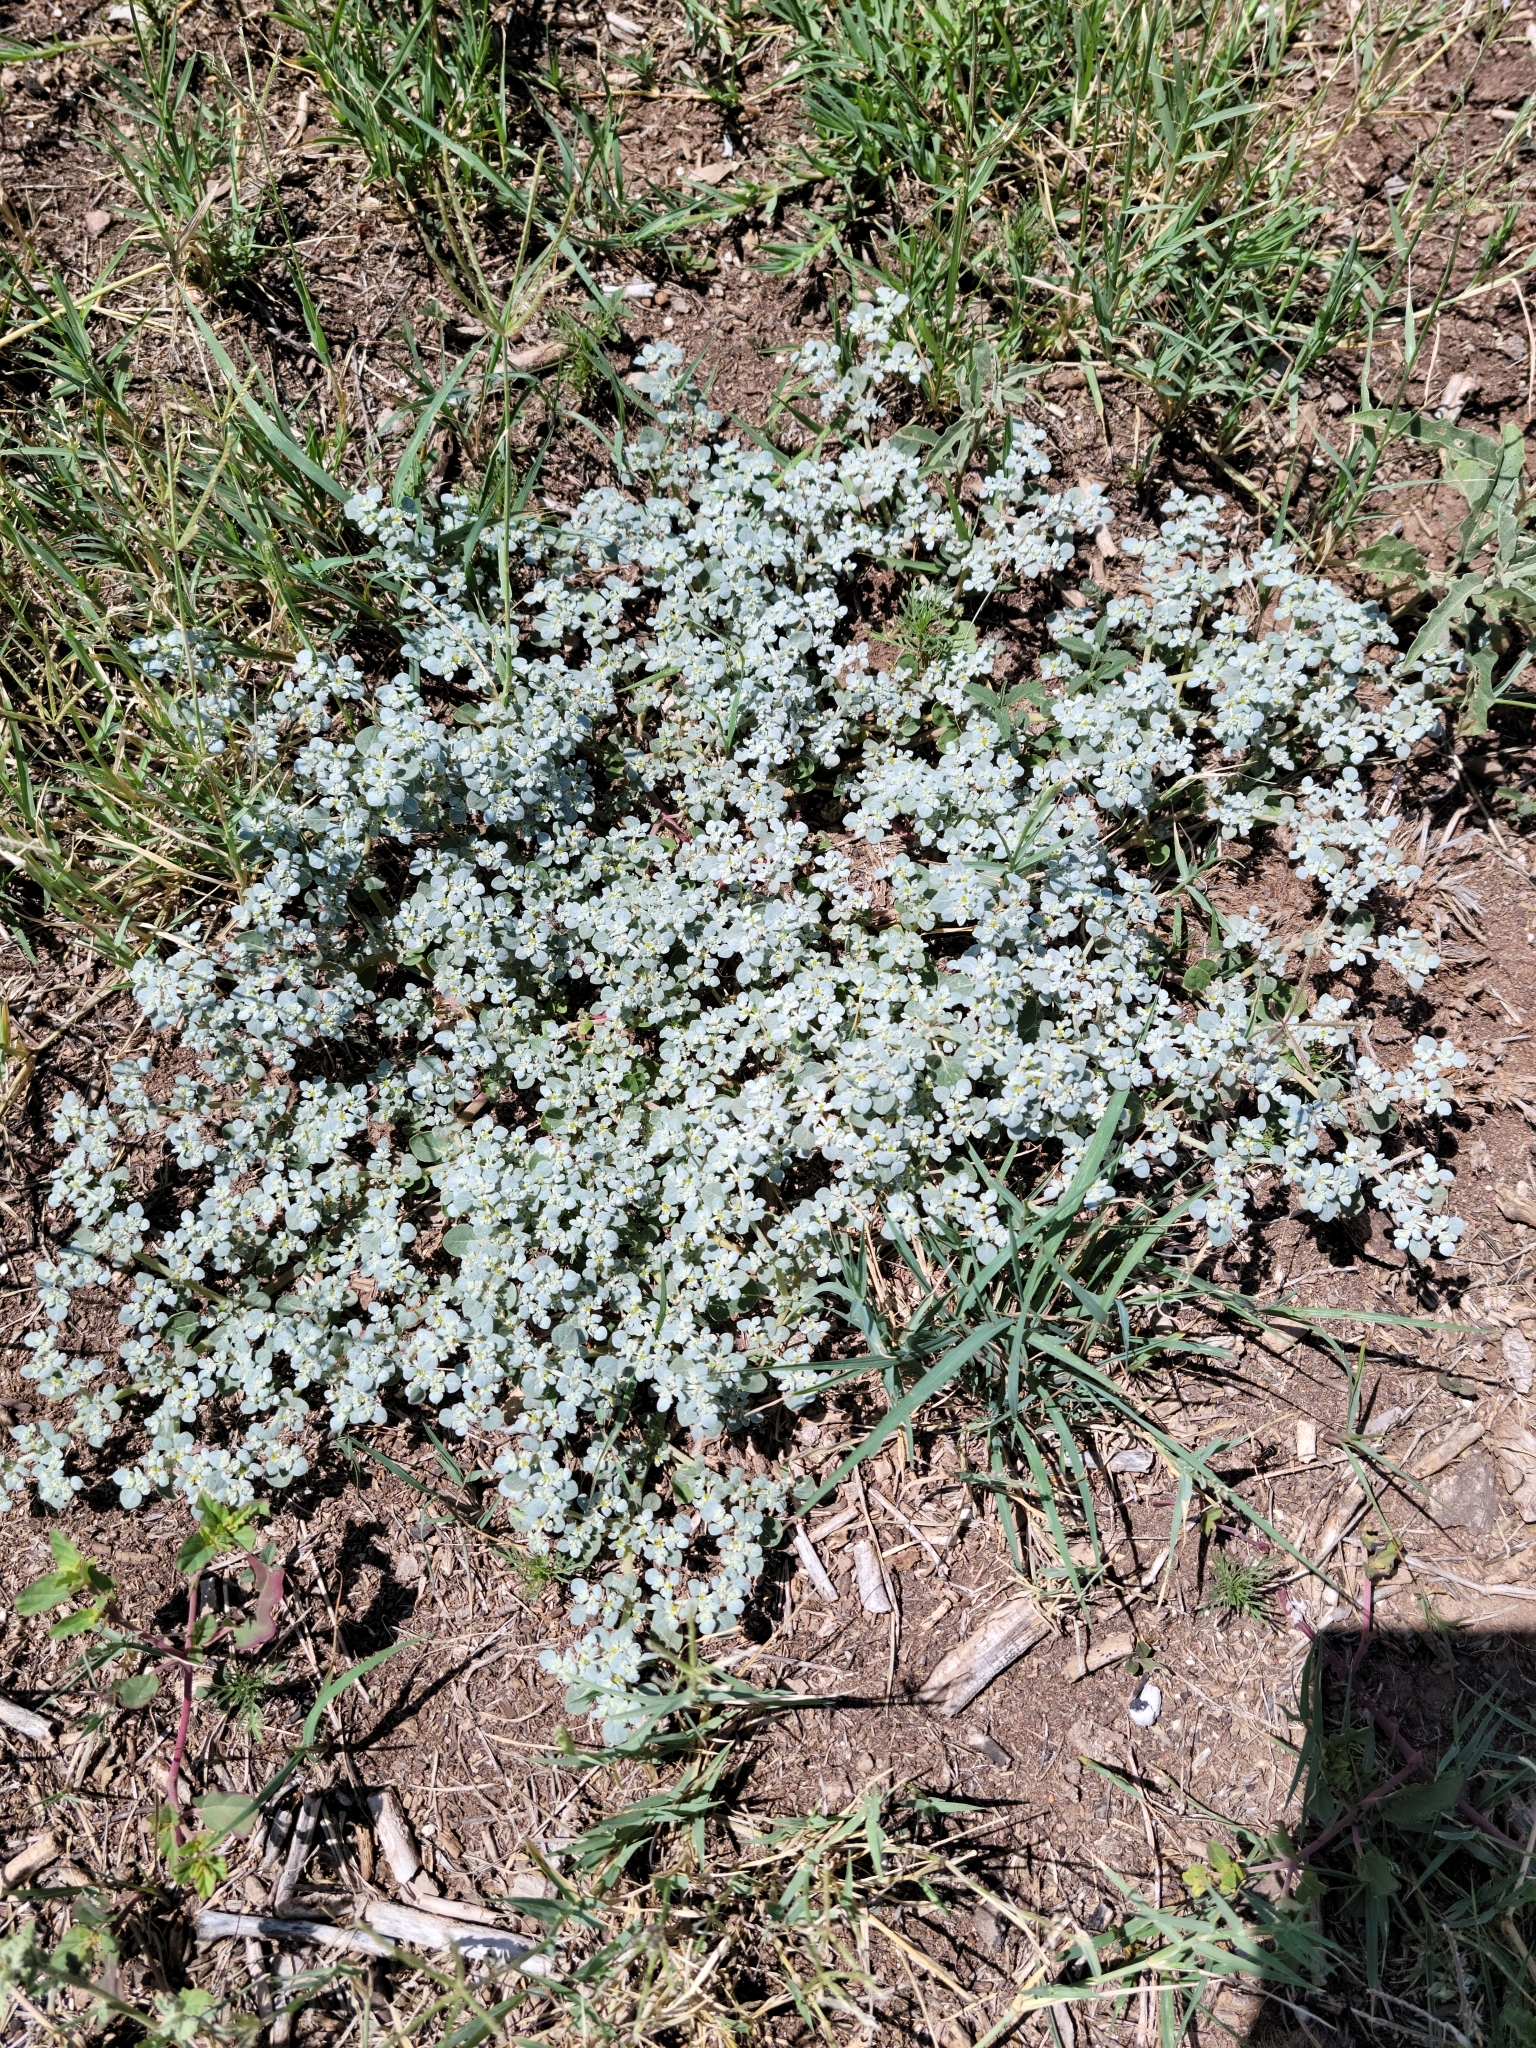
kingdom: Plantae
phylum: Tracheophyta
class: Magnoliopsida
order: Caryophyllales
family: Amaranthaceae
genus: Tidestromia
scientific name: Tidestromia lanuginosa
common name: Woolly tidestromia
